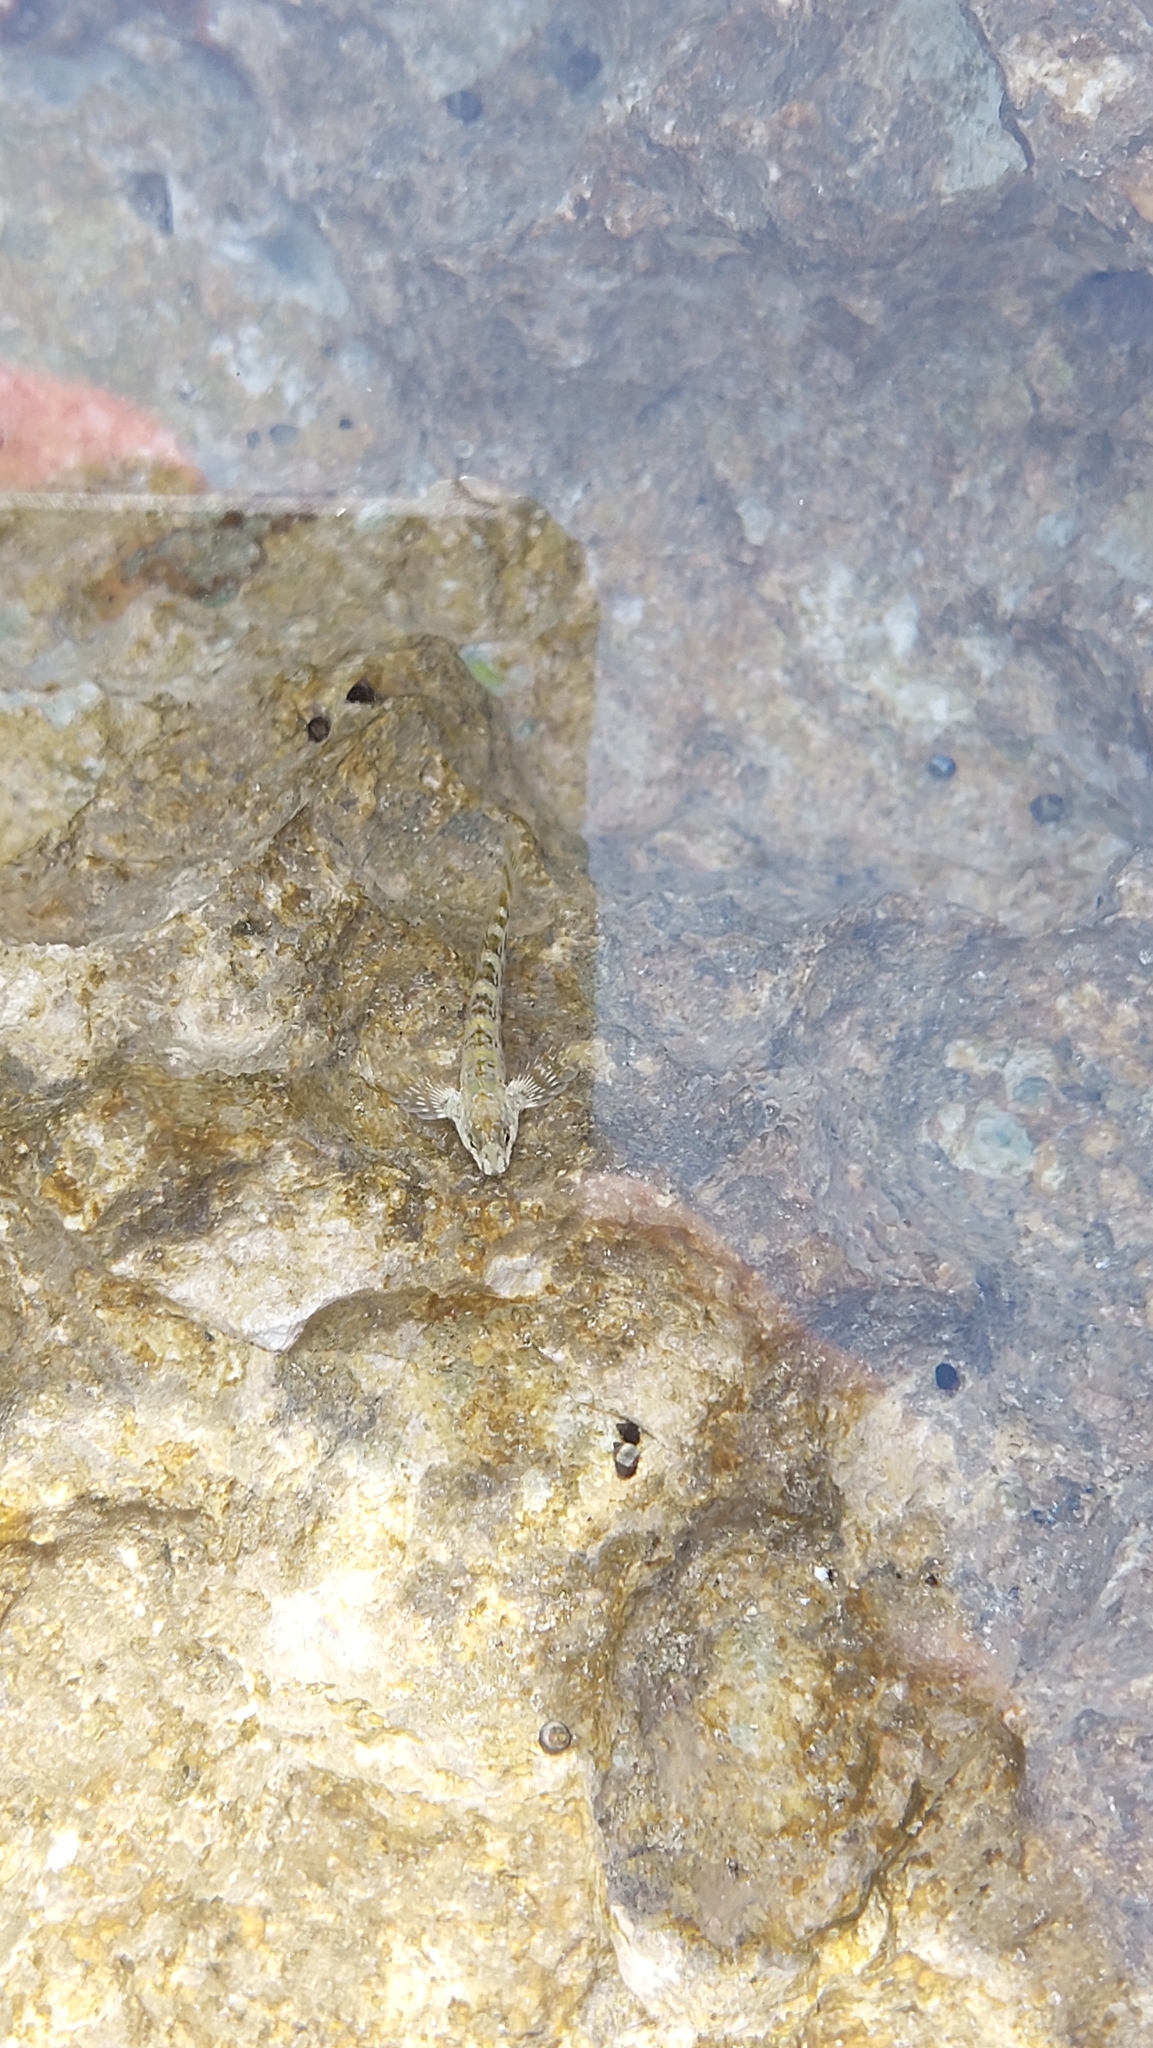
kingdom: Animalia
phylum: Chordata
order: Perciformes
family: Blenniidae
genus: Coryphoblennius
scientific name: Coryphoblennius galerita
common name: Montagu's blenny
